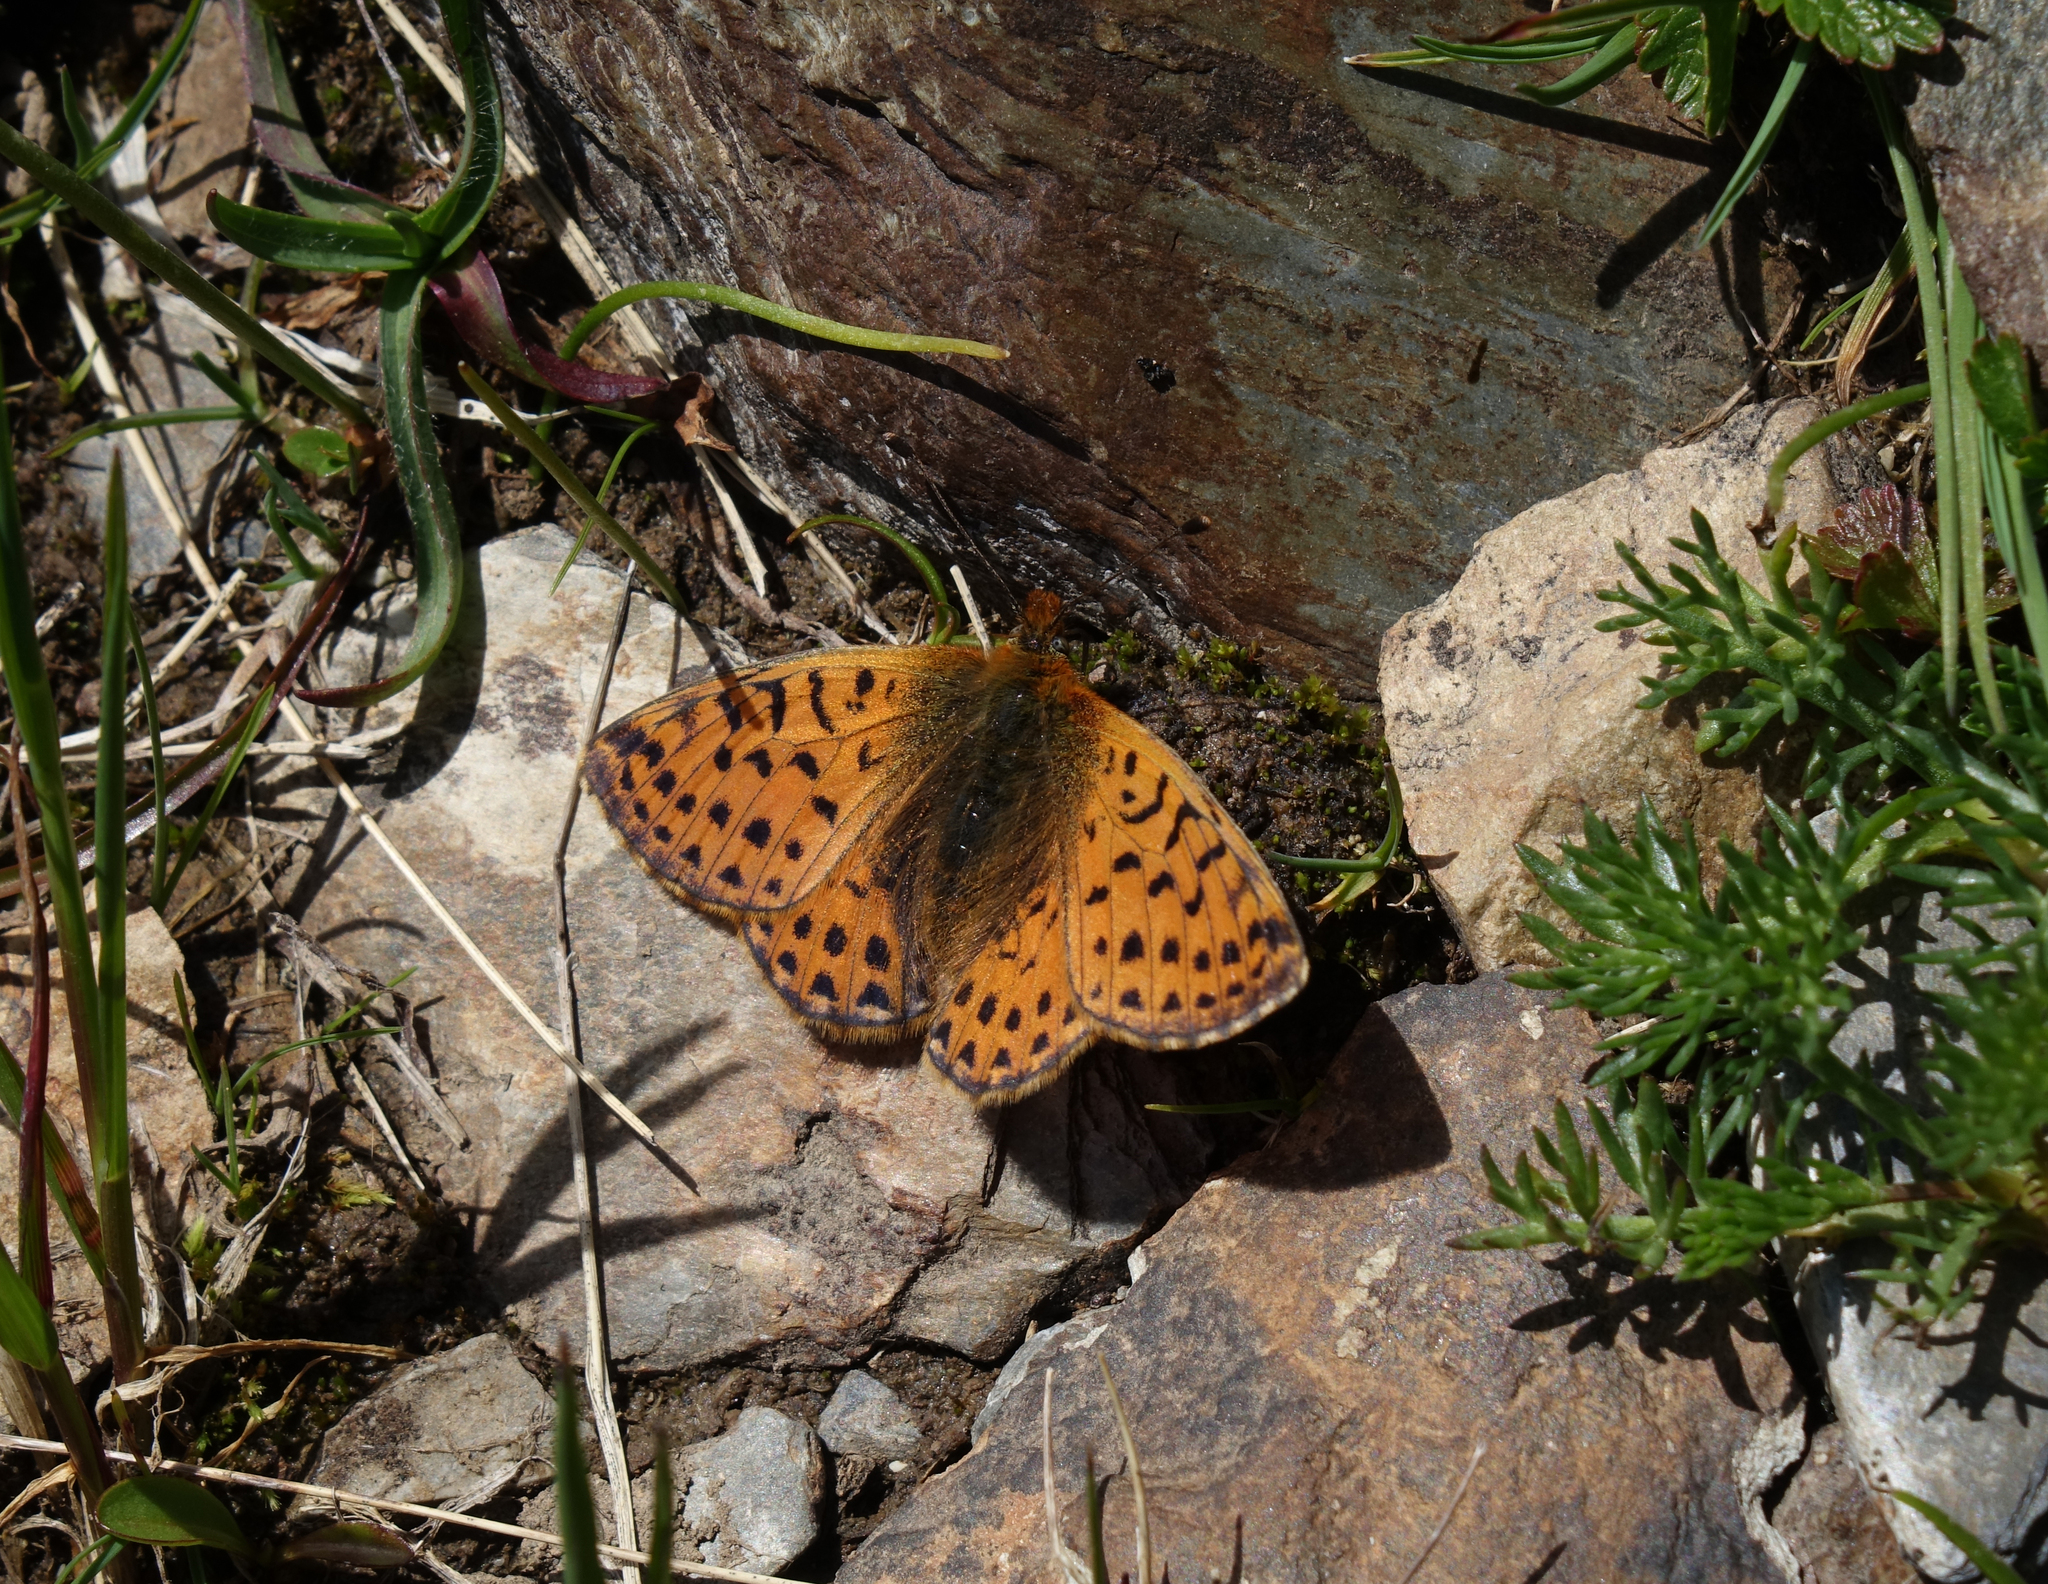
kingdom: Animalia
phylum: Arthropoda
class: Insecta
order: Lepidoptera
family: Nymphalidae
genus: Boloria
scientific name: Boloria caucasica
